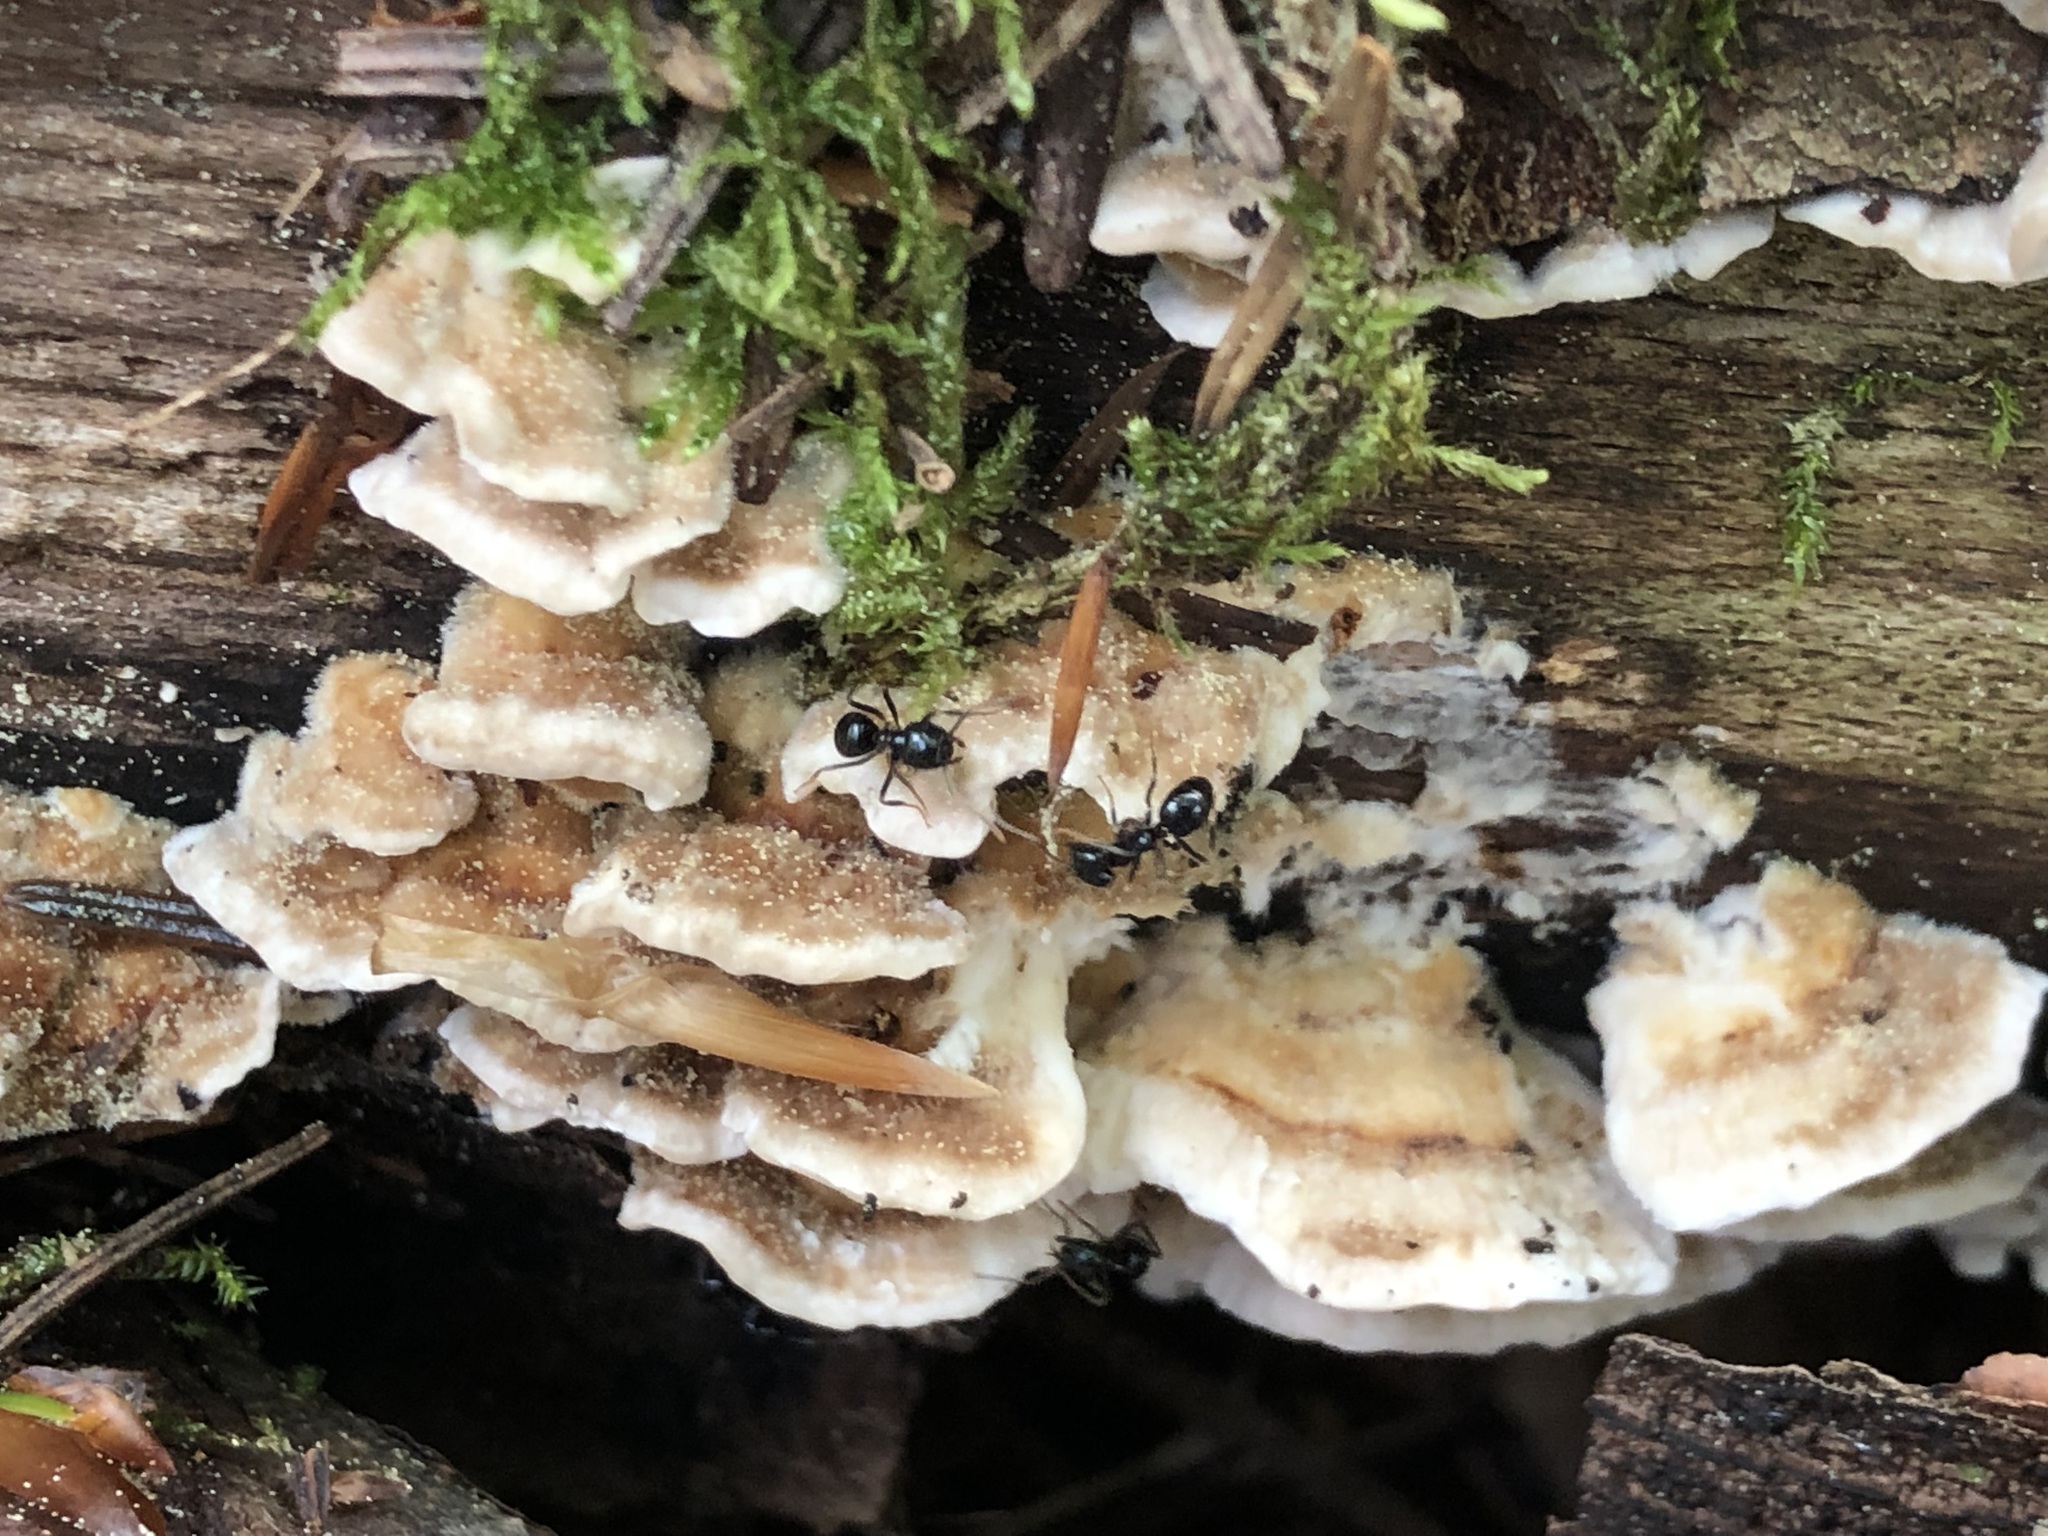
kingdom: Animalia
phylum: Arthropoda
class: Insecta
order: Hymenoptera
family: Formicidae
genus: Lasius
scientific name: Lasius fuliginosus
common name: Jet ant
